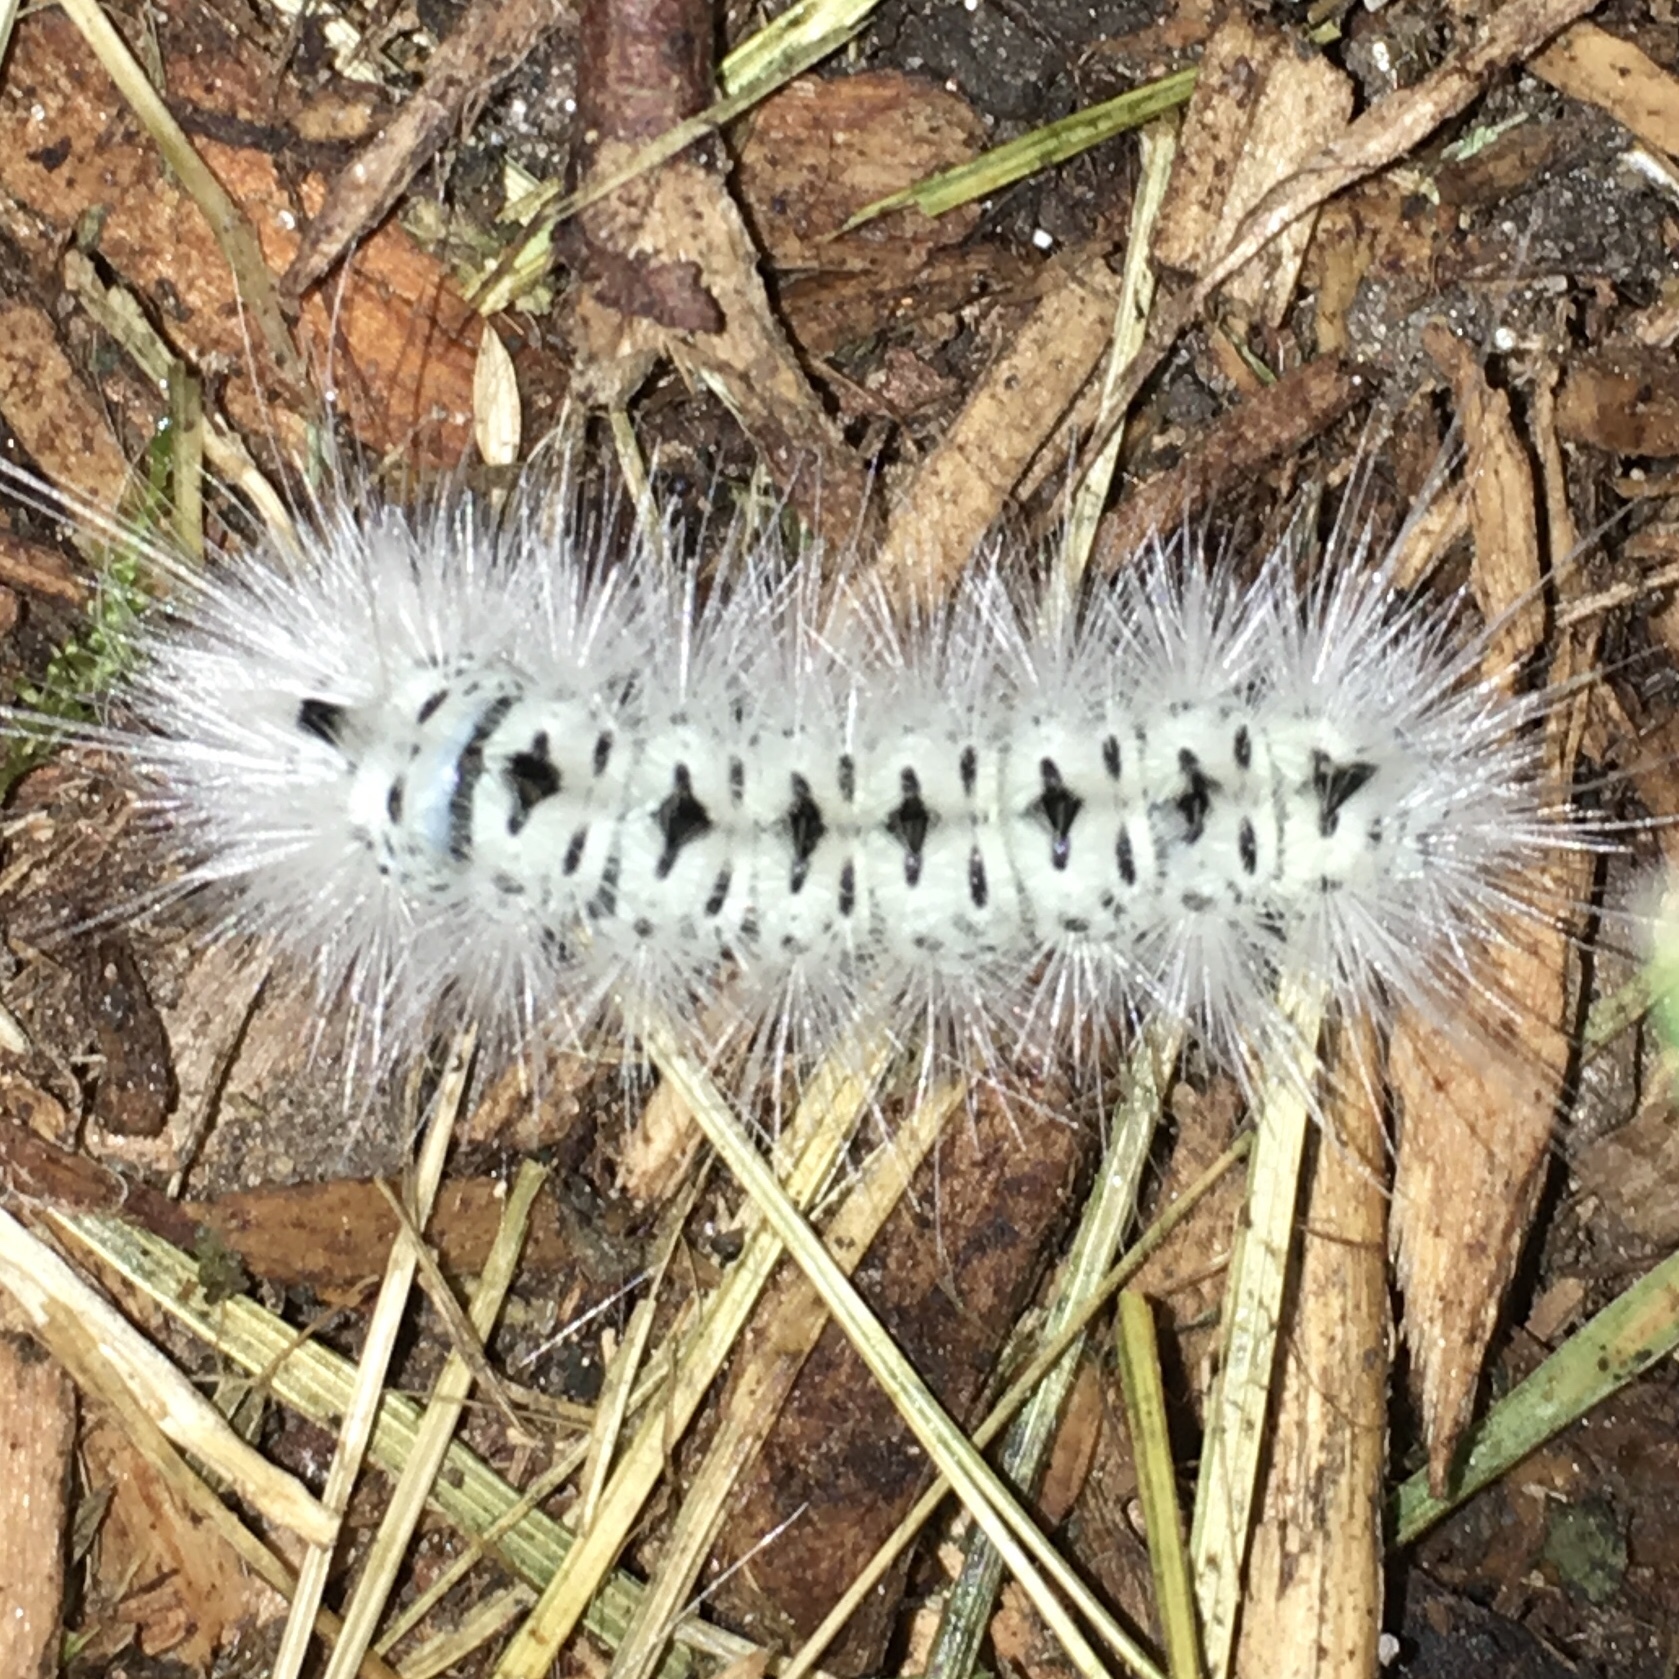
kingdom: Animalia
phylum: Arthropoda
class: Insecta
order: Lepidoptera
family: Erebidae
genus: Lophocampa
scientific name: Lophocampa caryae
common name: Hickory tussock moth
